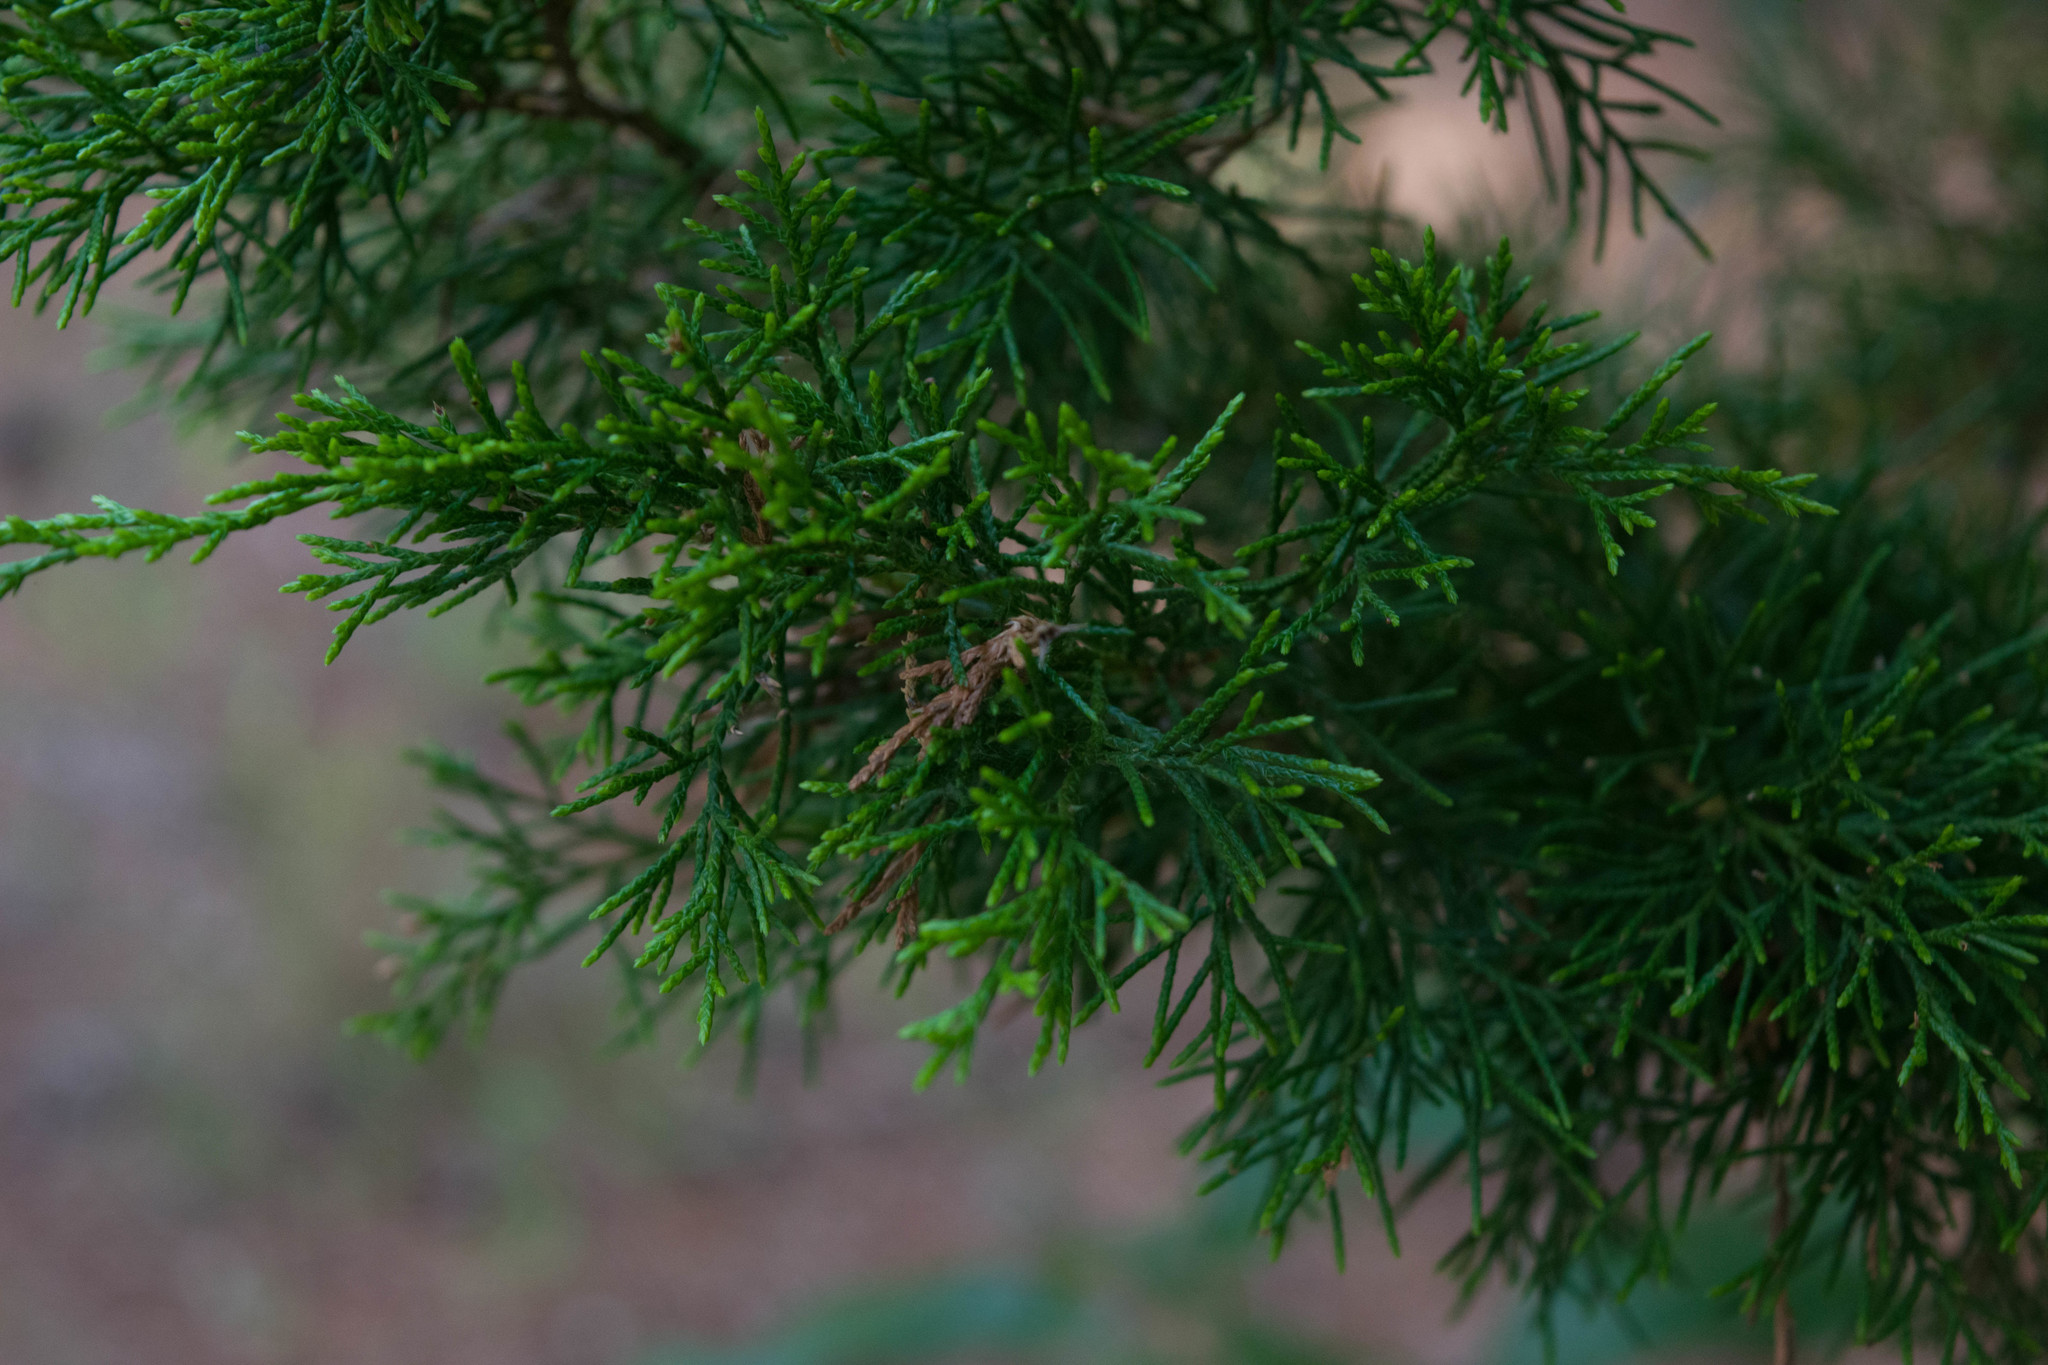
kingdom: Plantae
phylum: Tracheophyta
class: Pinopsida
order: Pinales
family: Cupressaceae
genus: Juniperus
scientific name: Juniperus virginiana
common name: Red juniper
